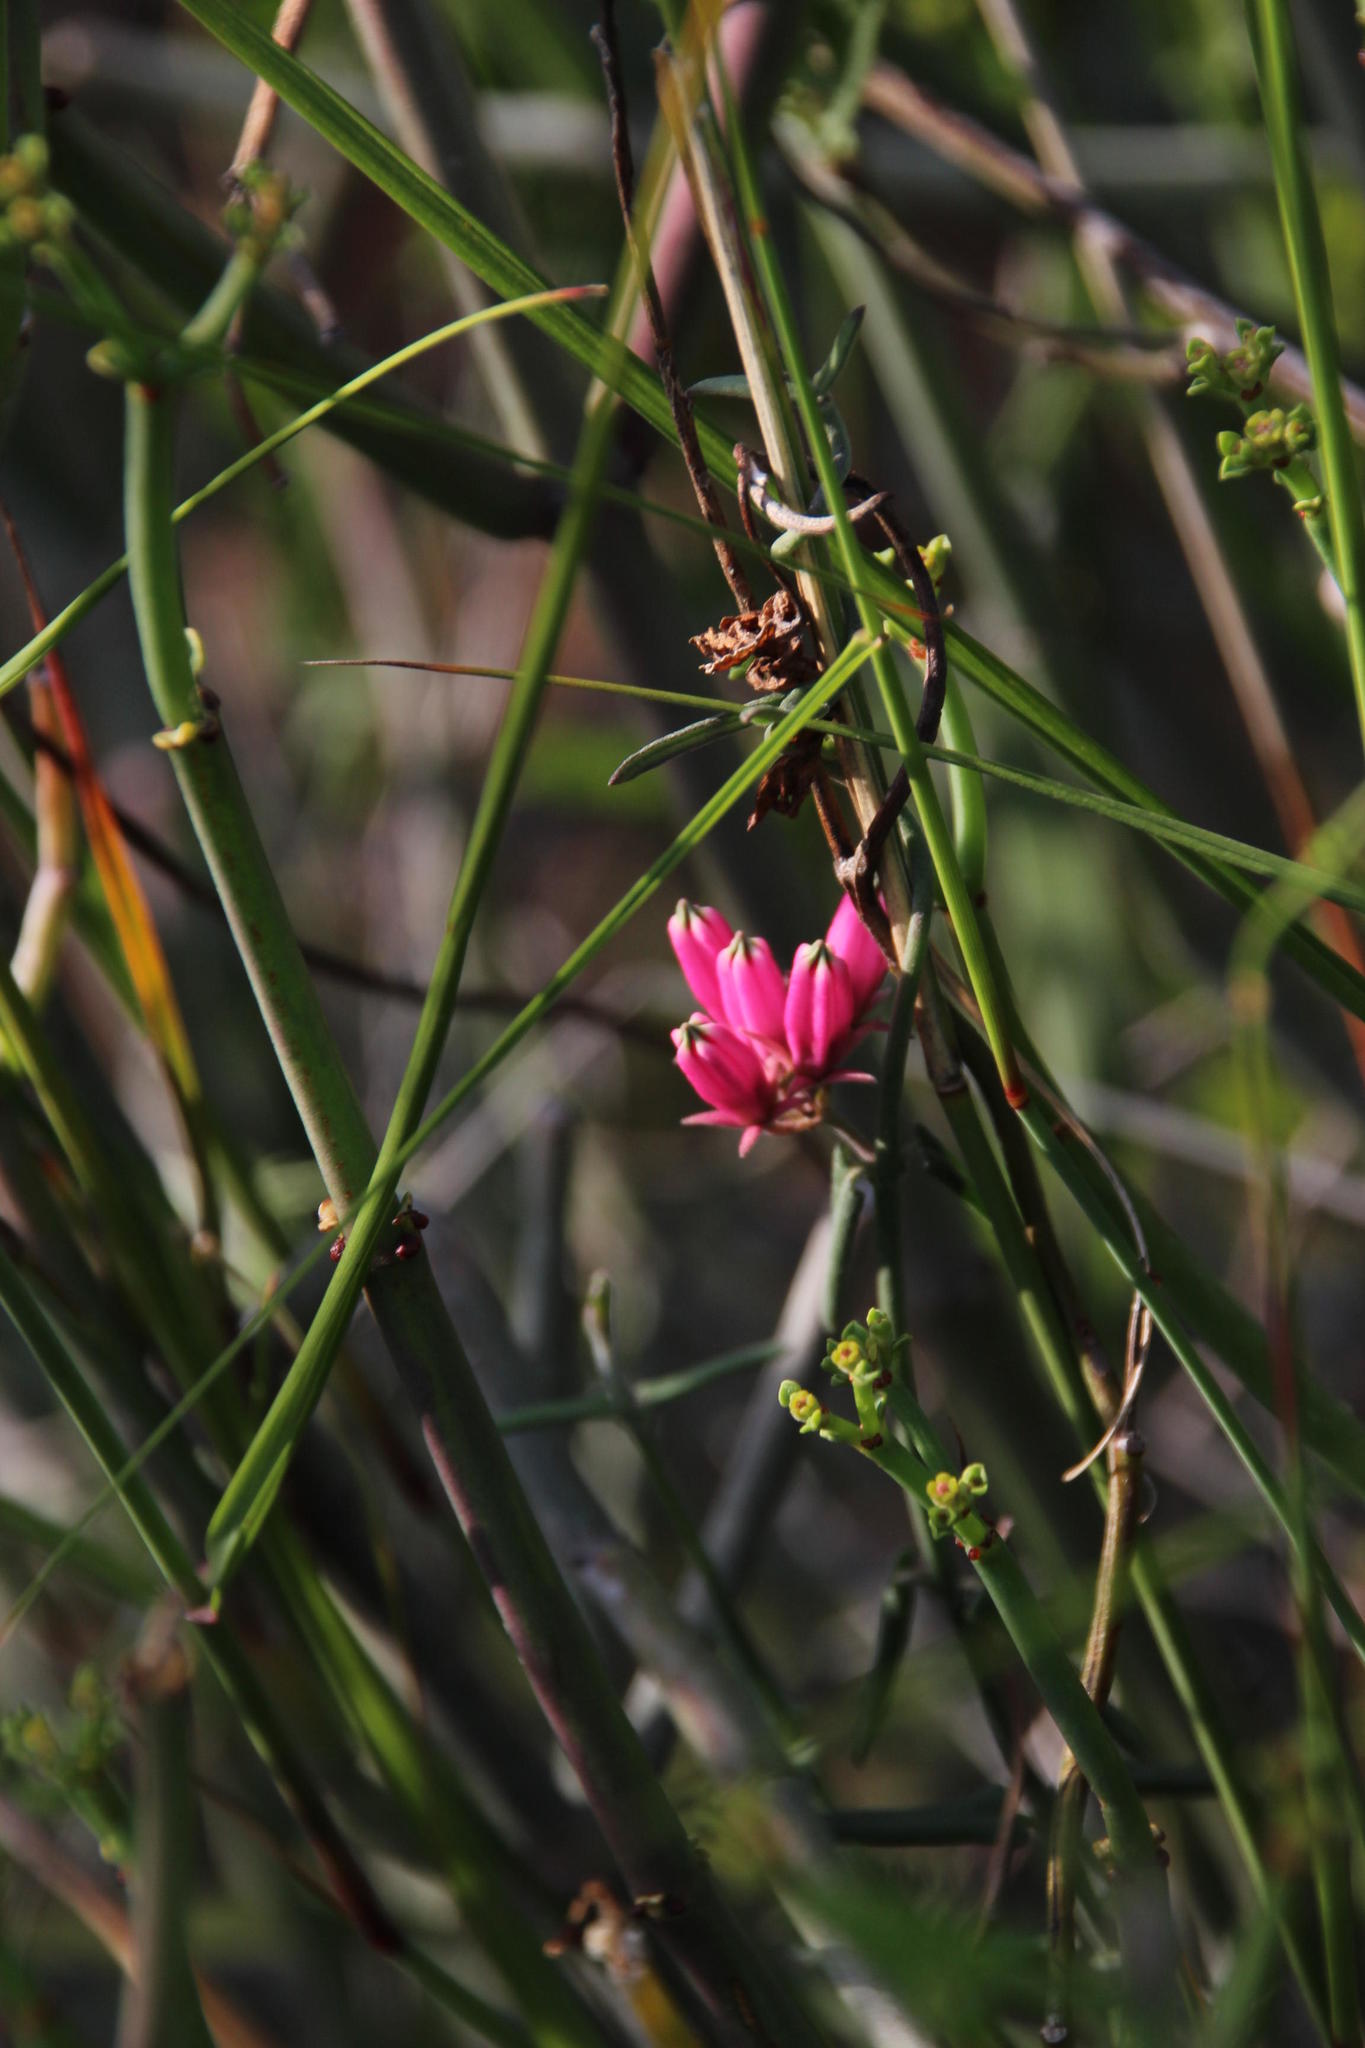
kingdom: Plantae
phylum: Tracheophyta
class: Magnoliopsida
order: Gentianales
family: Apocynaceae
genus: Microloma
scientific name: Microloma sagittatum
